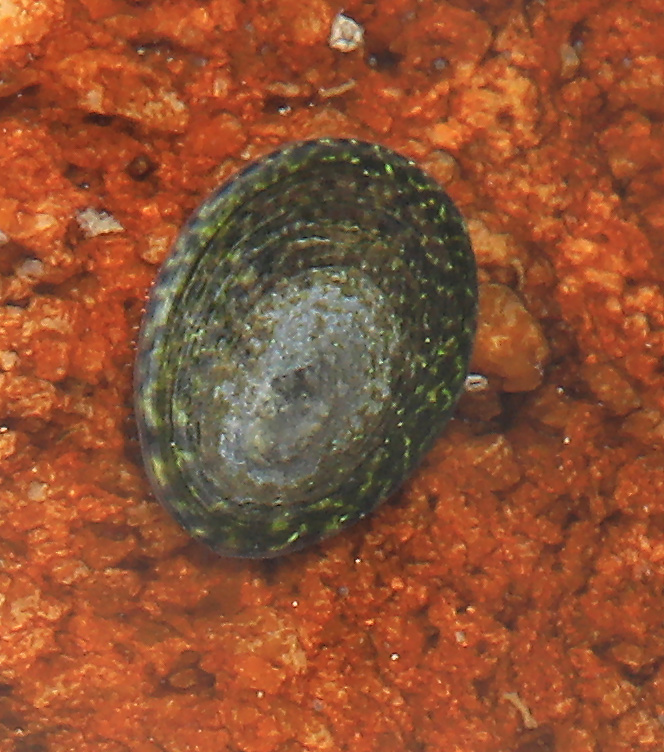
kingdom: Animalia
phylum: Mollusca
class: Gastropoda
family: Patellidae
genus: Helcion
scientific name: Helcion pruinosus
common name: Rayed limpet
